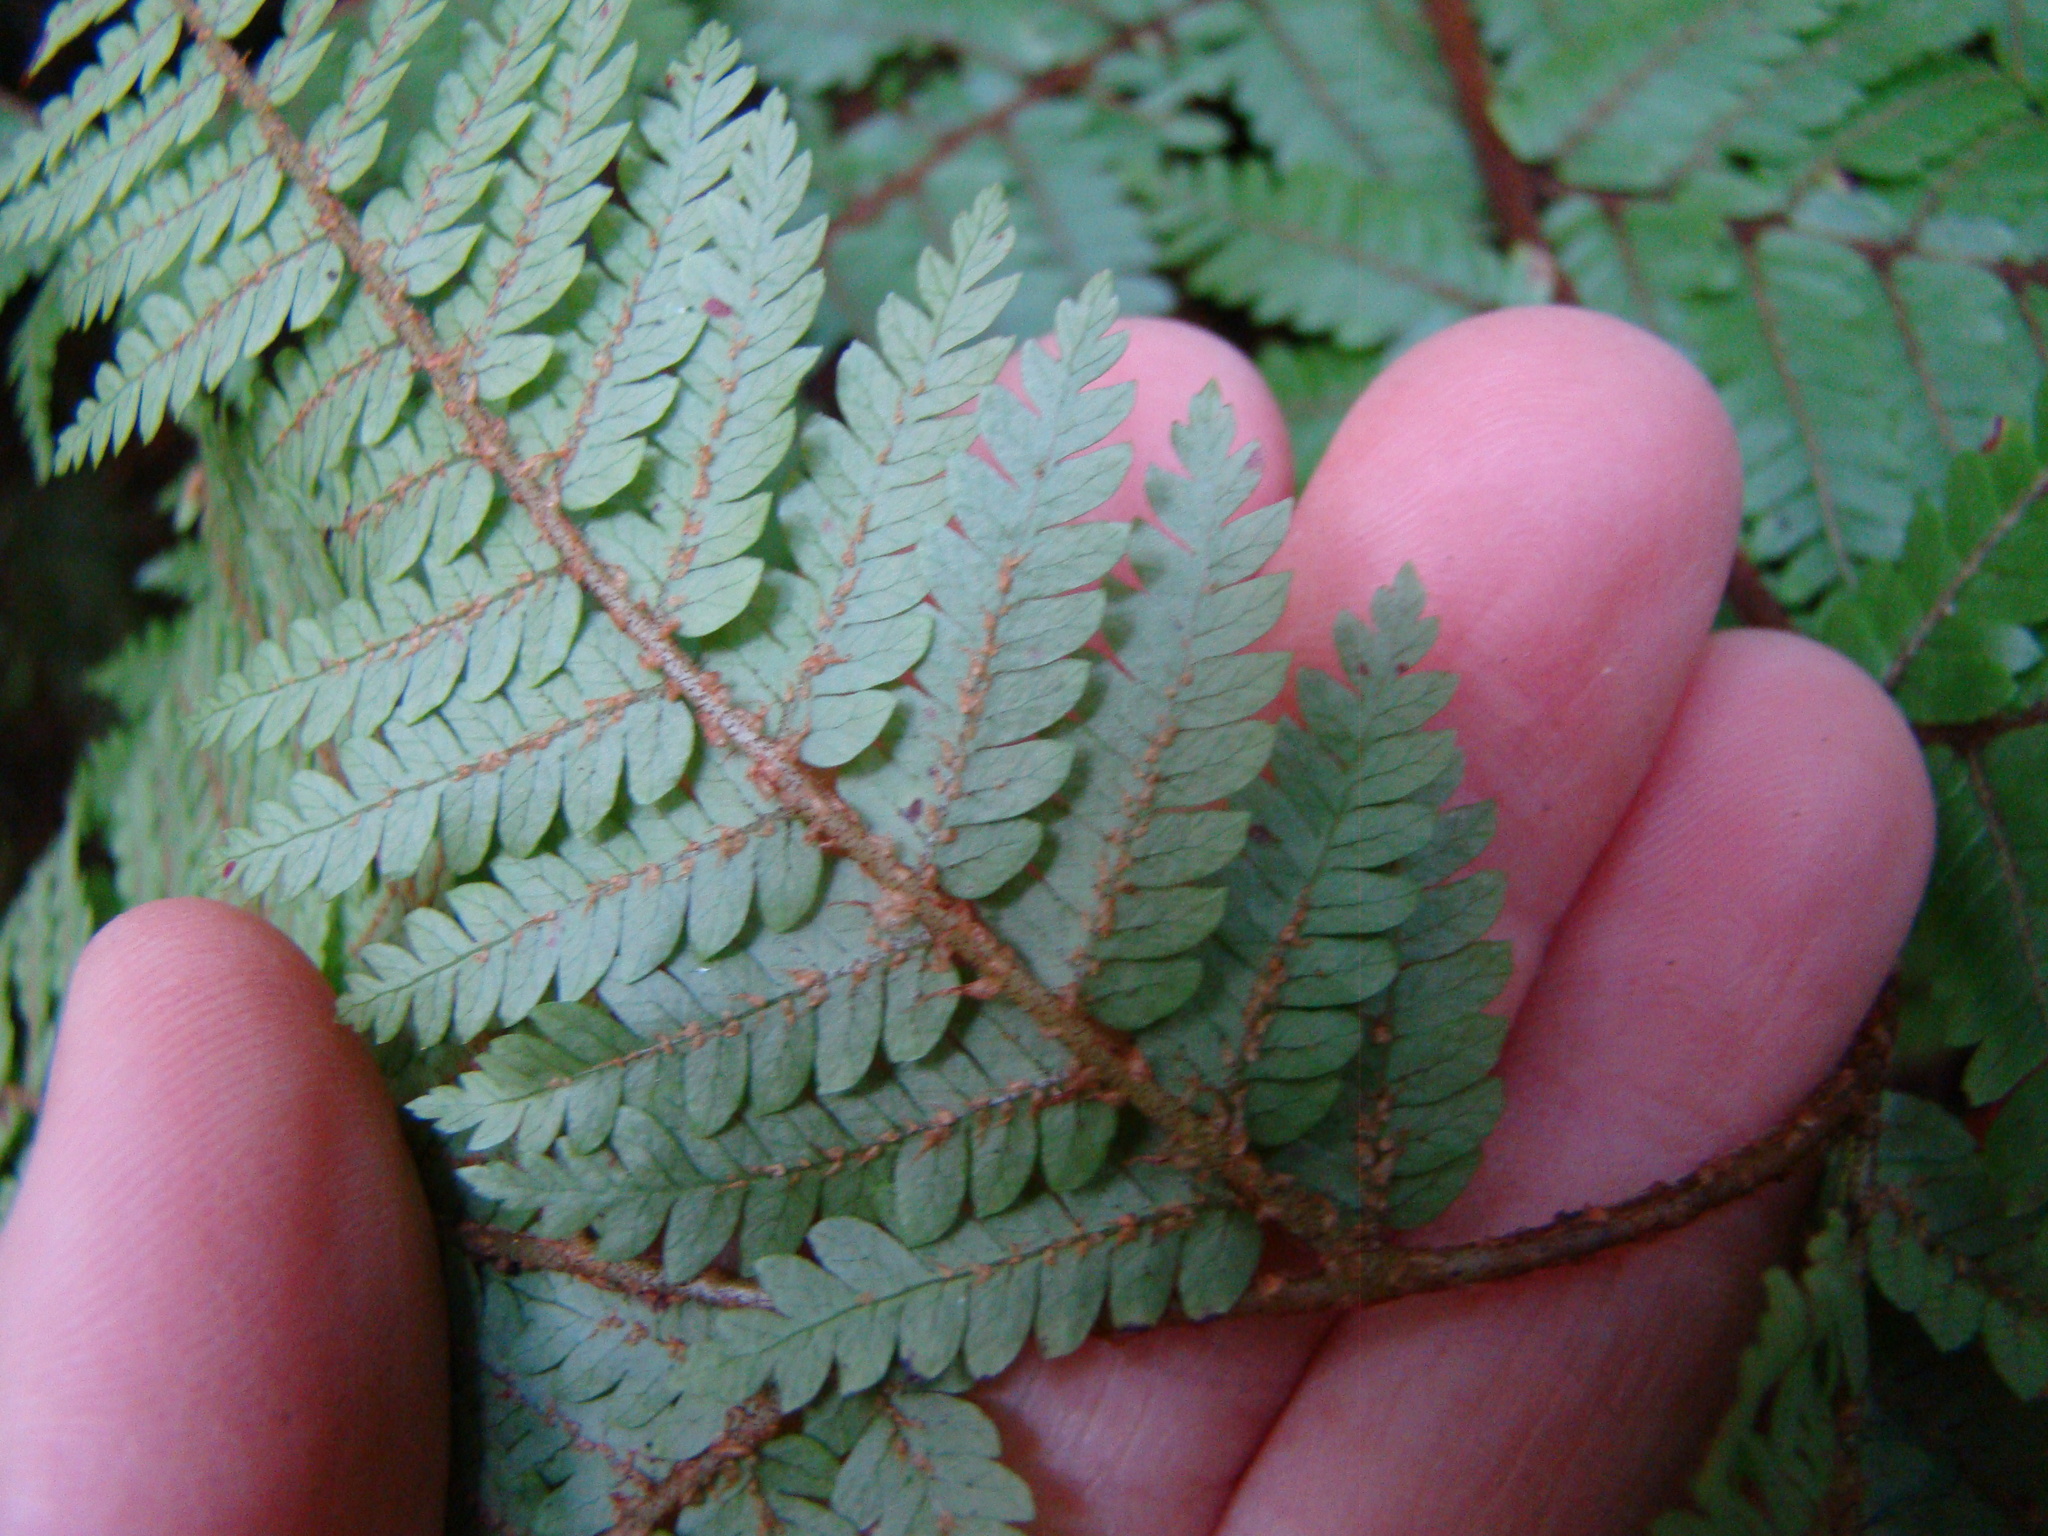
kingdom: Plantae
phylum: Tracheophyta
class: Polypodiopsida
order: Cyatheales
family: Cyatheaceae
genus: Alsophila
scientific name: Alsophila colensoi
